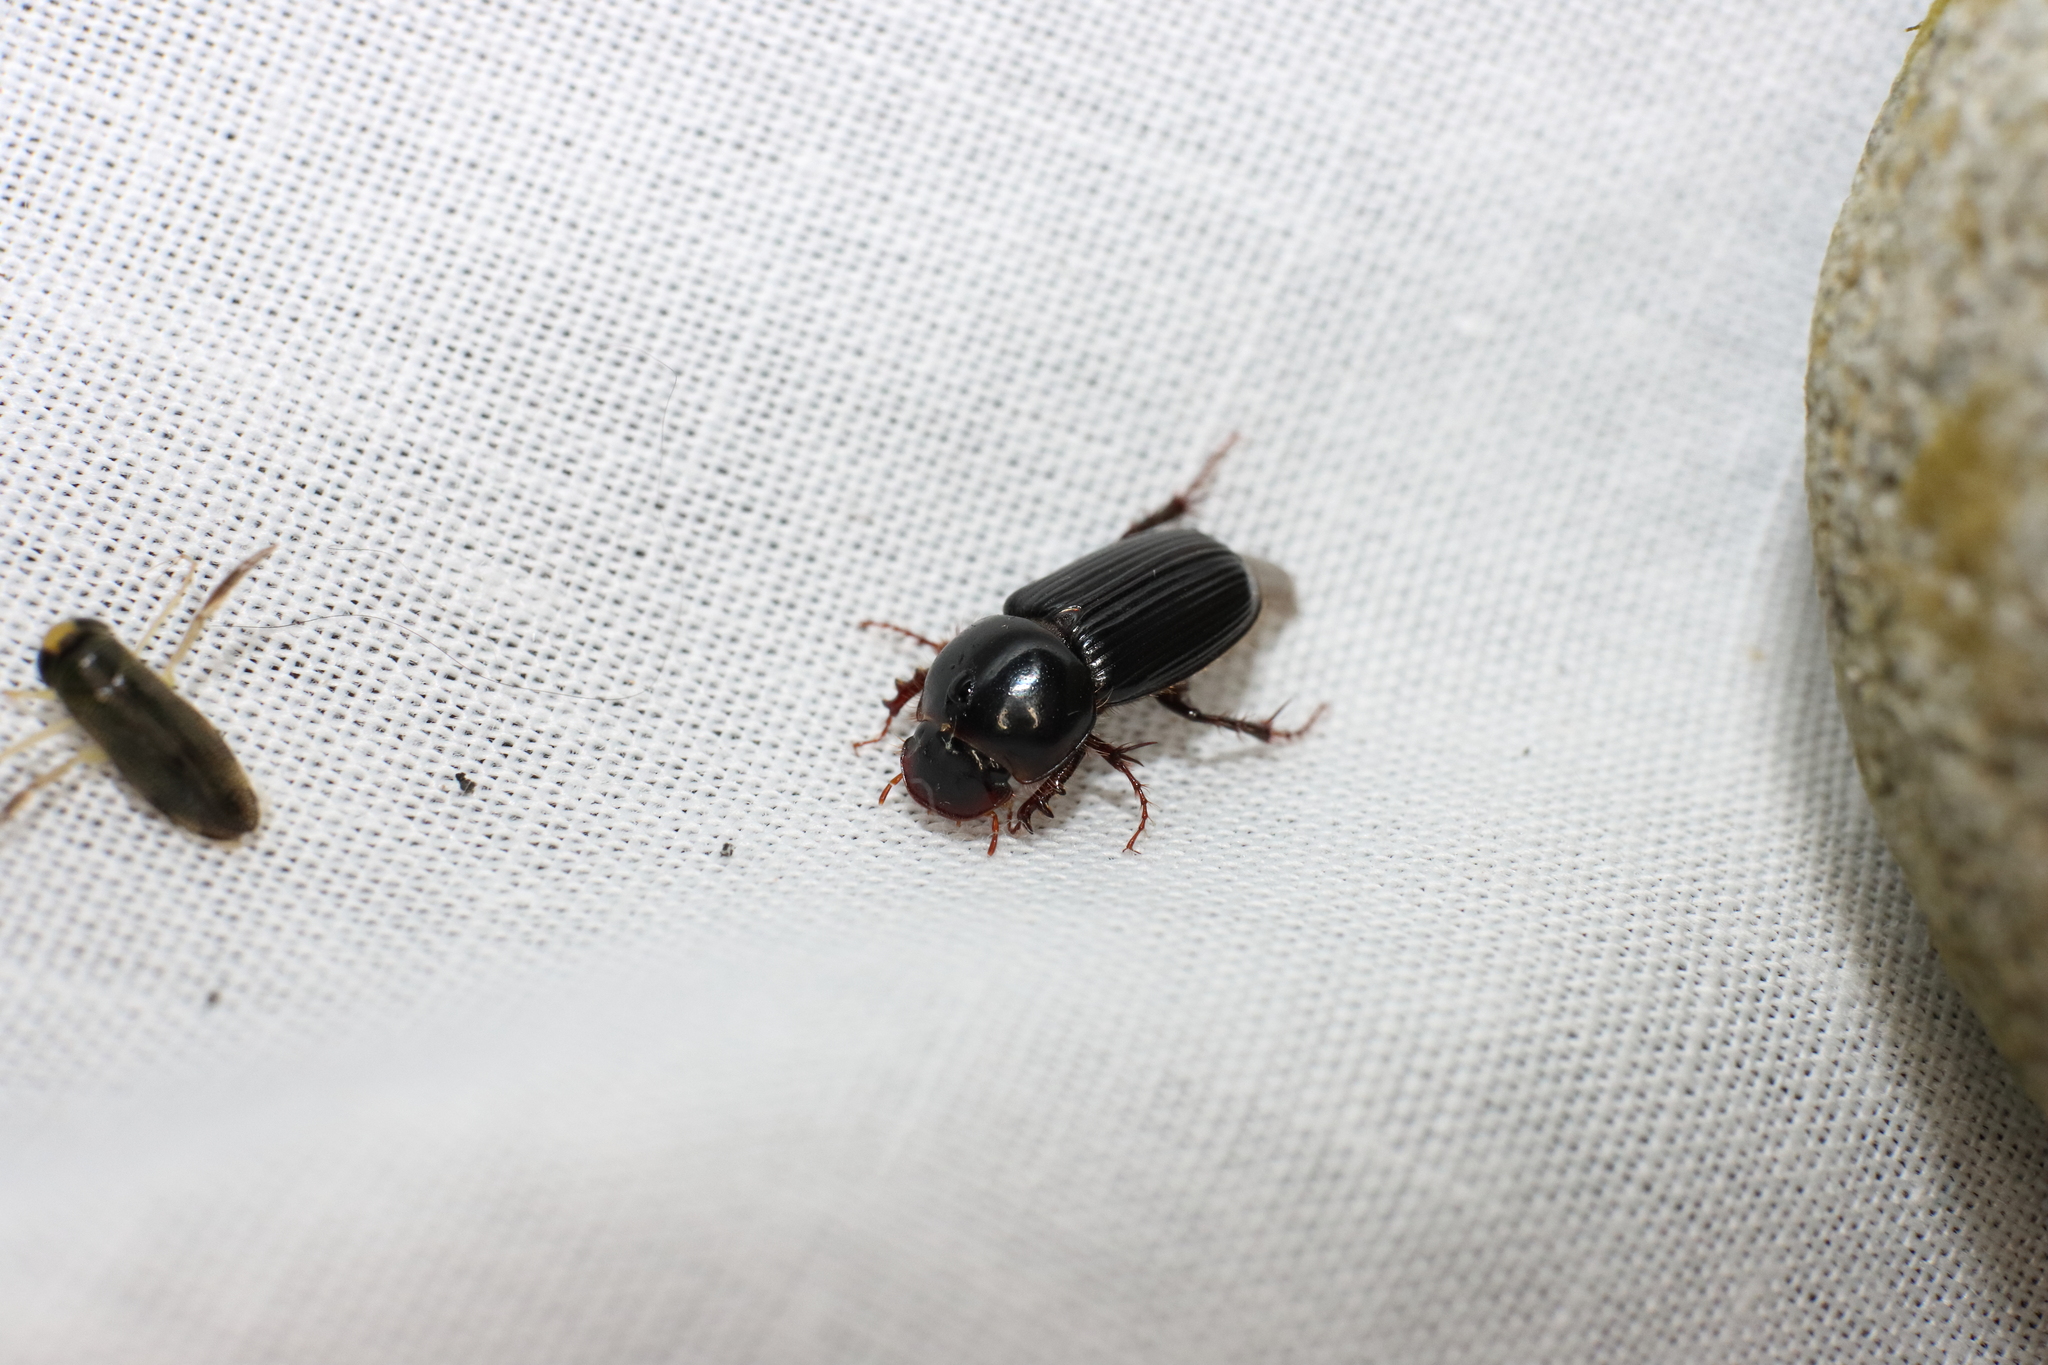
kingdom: Animalia
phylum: Arthropoda
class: Insecta
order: Coleoptera
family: Scarabaeidae
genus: Acrossidius
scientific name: Acrossidius tasmaniae
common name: Black-headed pasture cockchafer
